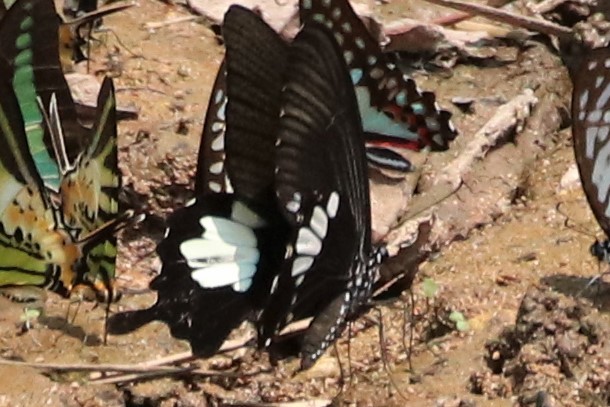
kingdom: Animalia
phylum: Arthropoda
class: Insecta
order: Lepidoptera
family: Papilionidae
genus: Papilio
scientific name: Papilio nephelus
